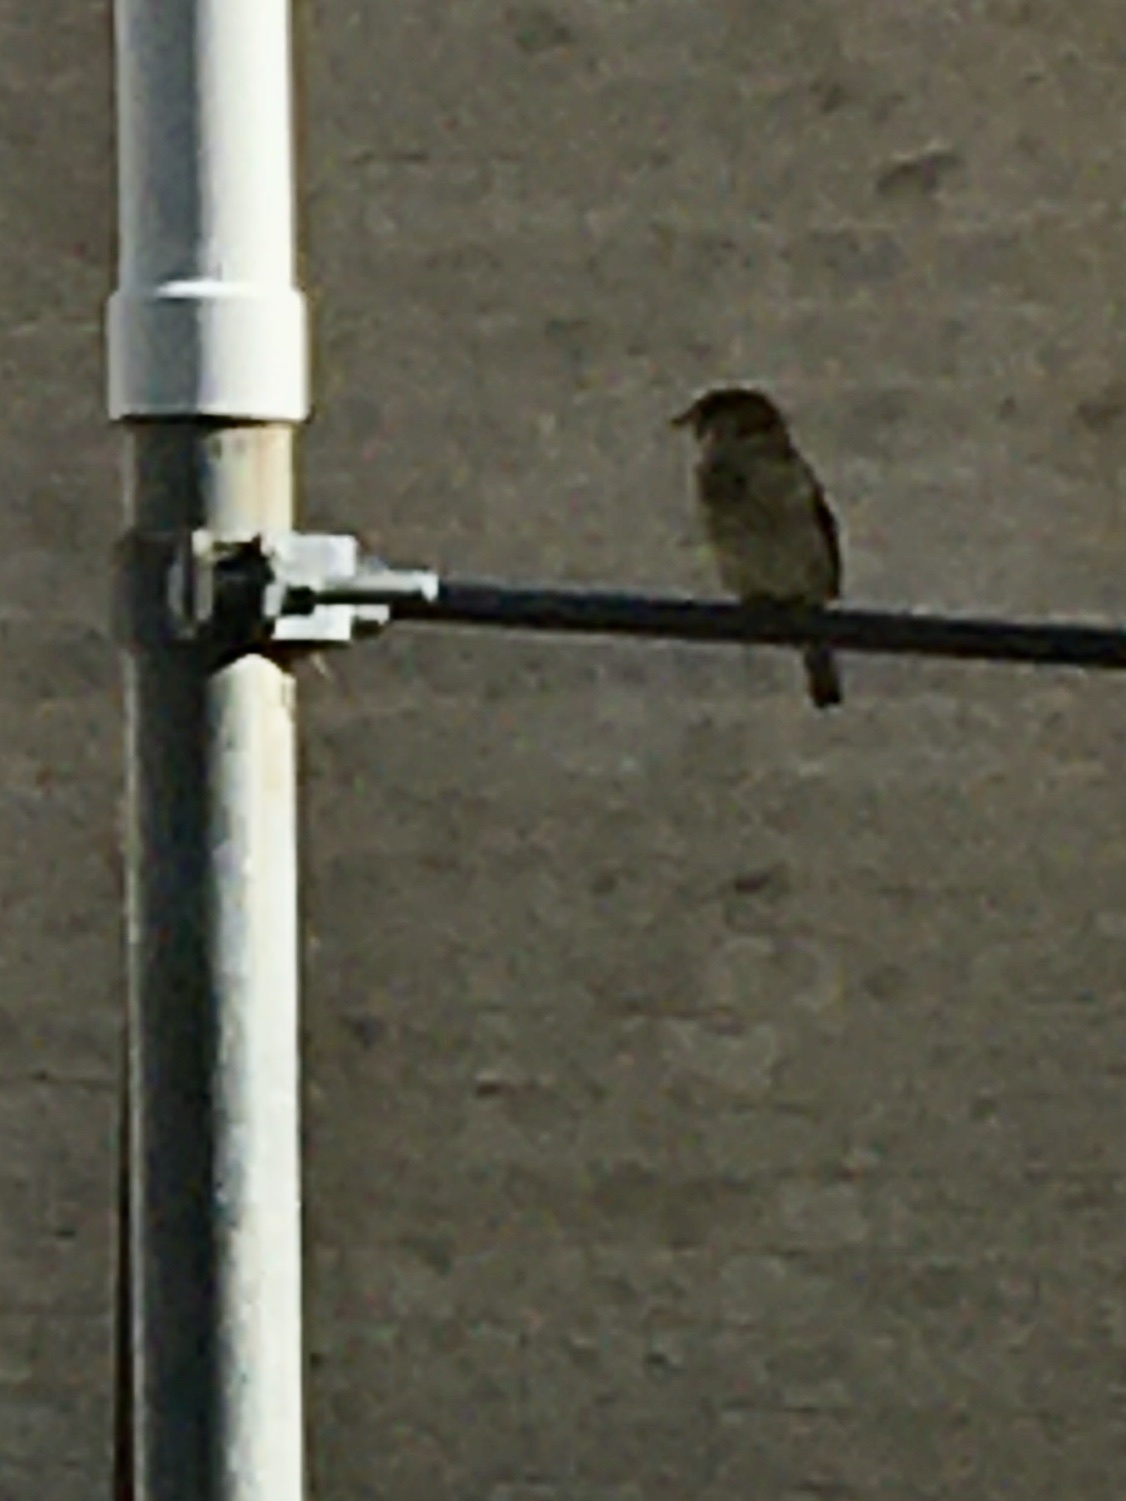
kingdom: Animalia
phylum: Chordata
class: Aves
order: Passeriformes
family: Passeridae
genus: Passer
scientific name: Passer domesticus
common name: House sparrow
